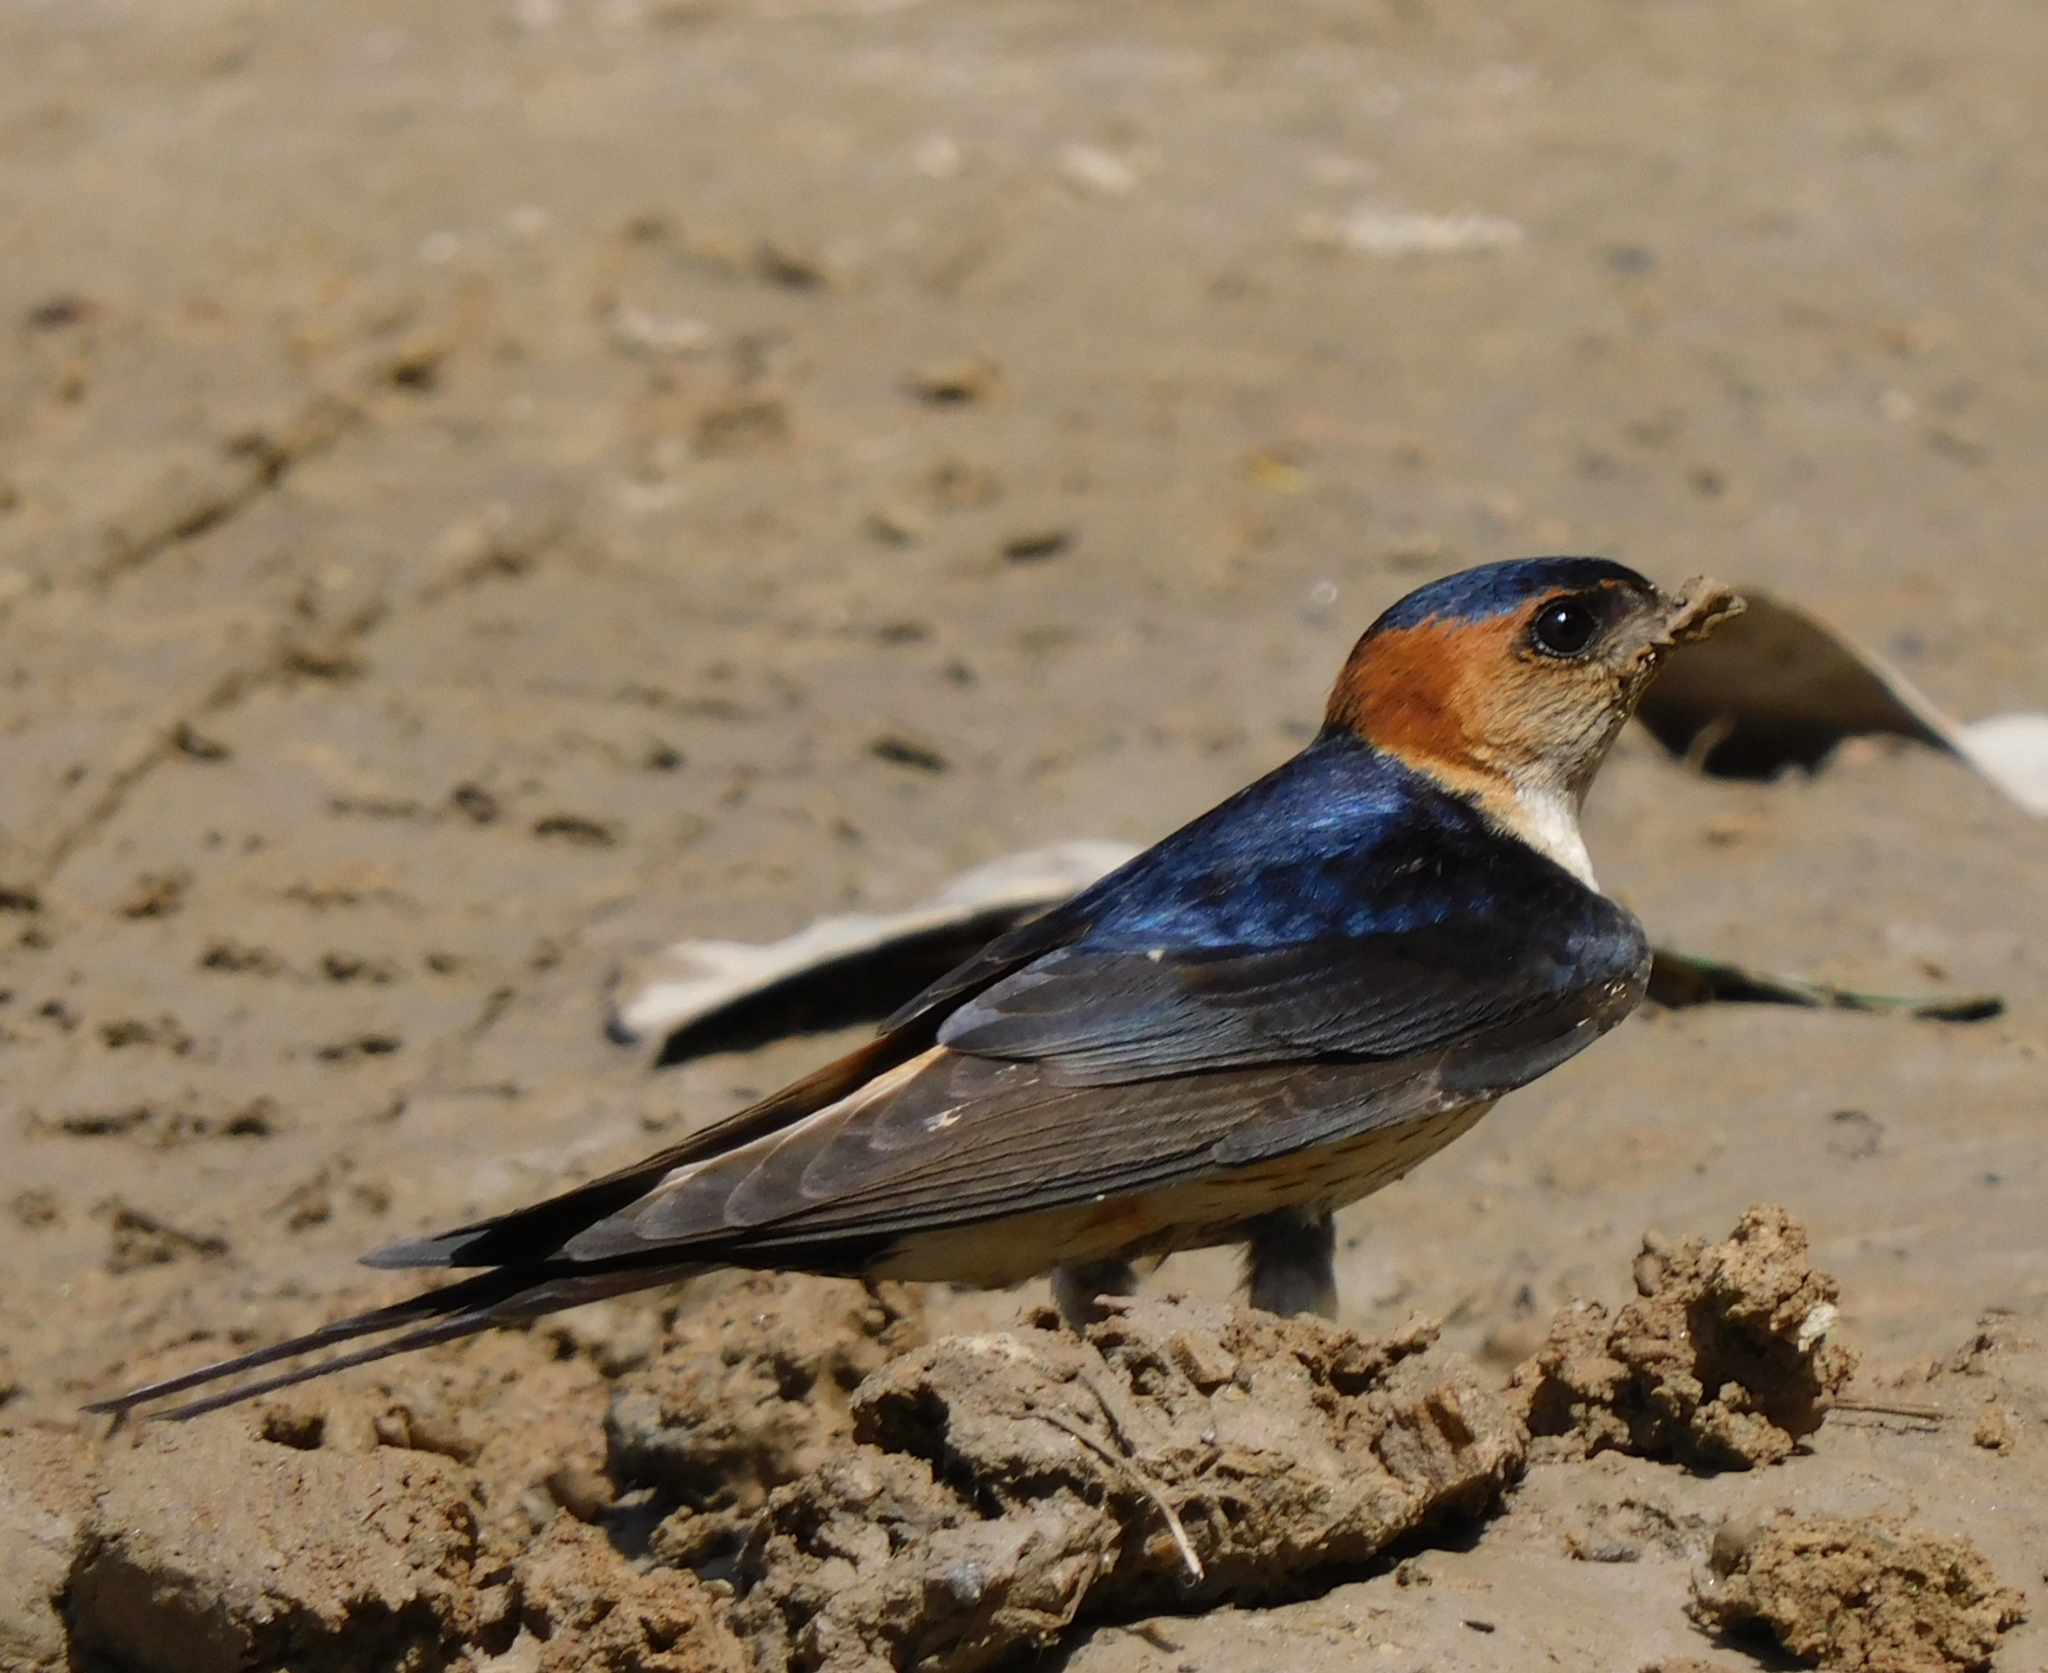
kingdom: Animalia
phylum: Chordata
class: Aves
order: Passeriformes
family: Hirundinidae
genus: Cecropis
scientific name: Cecropis daurica
